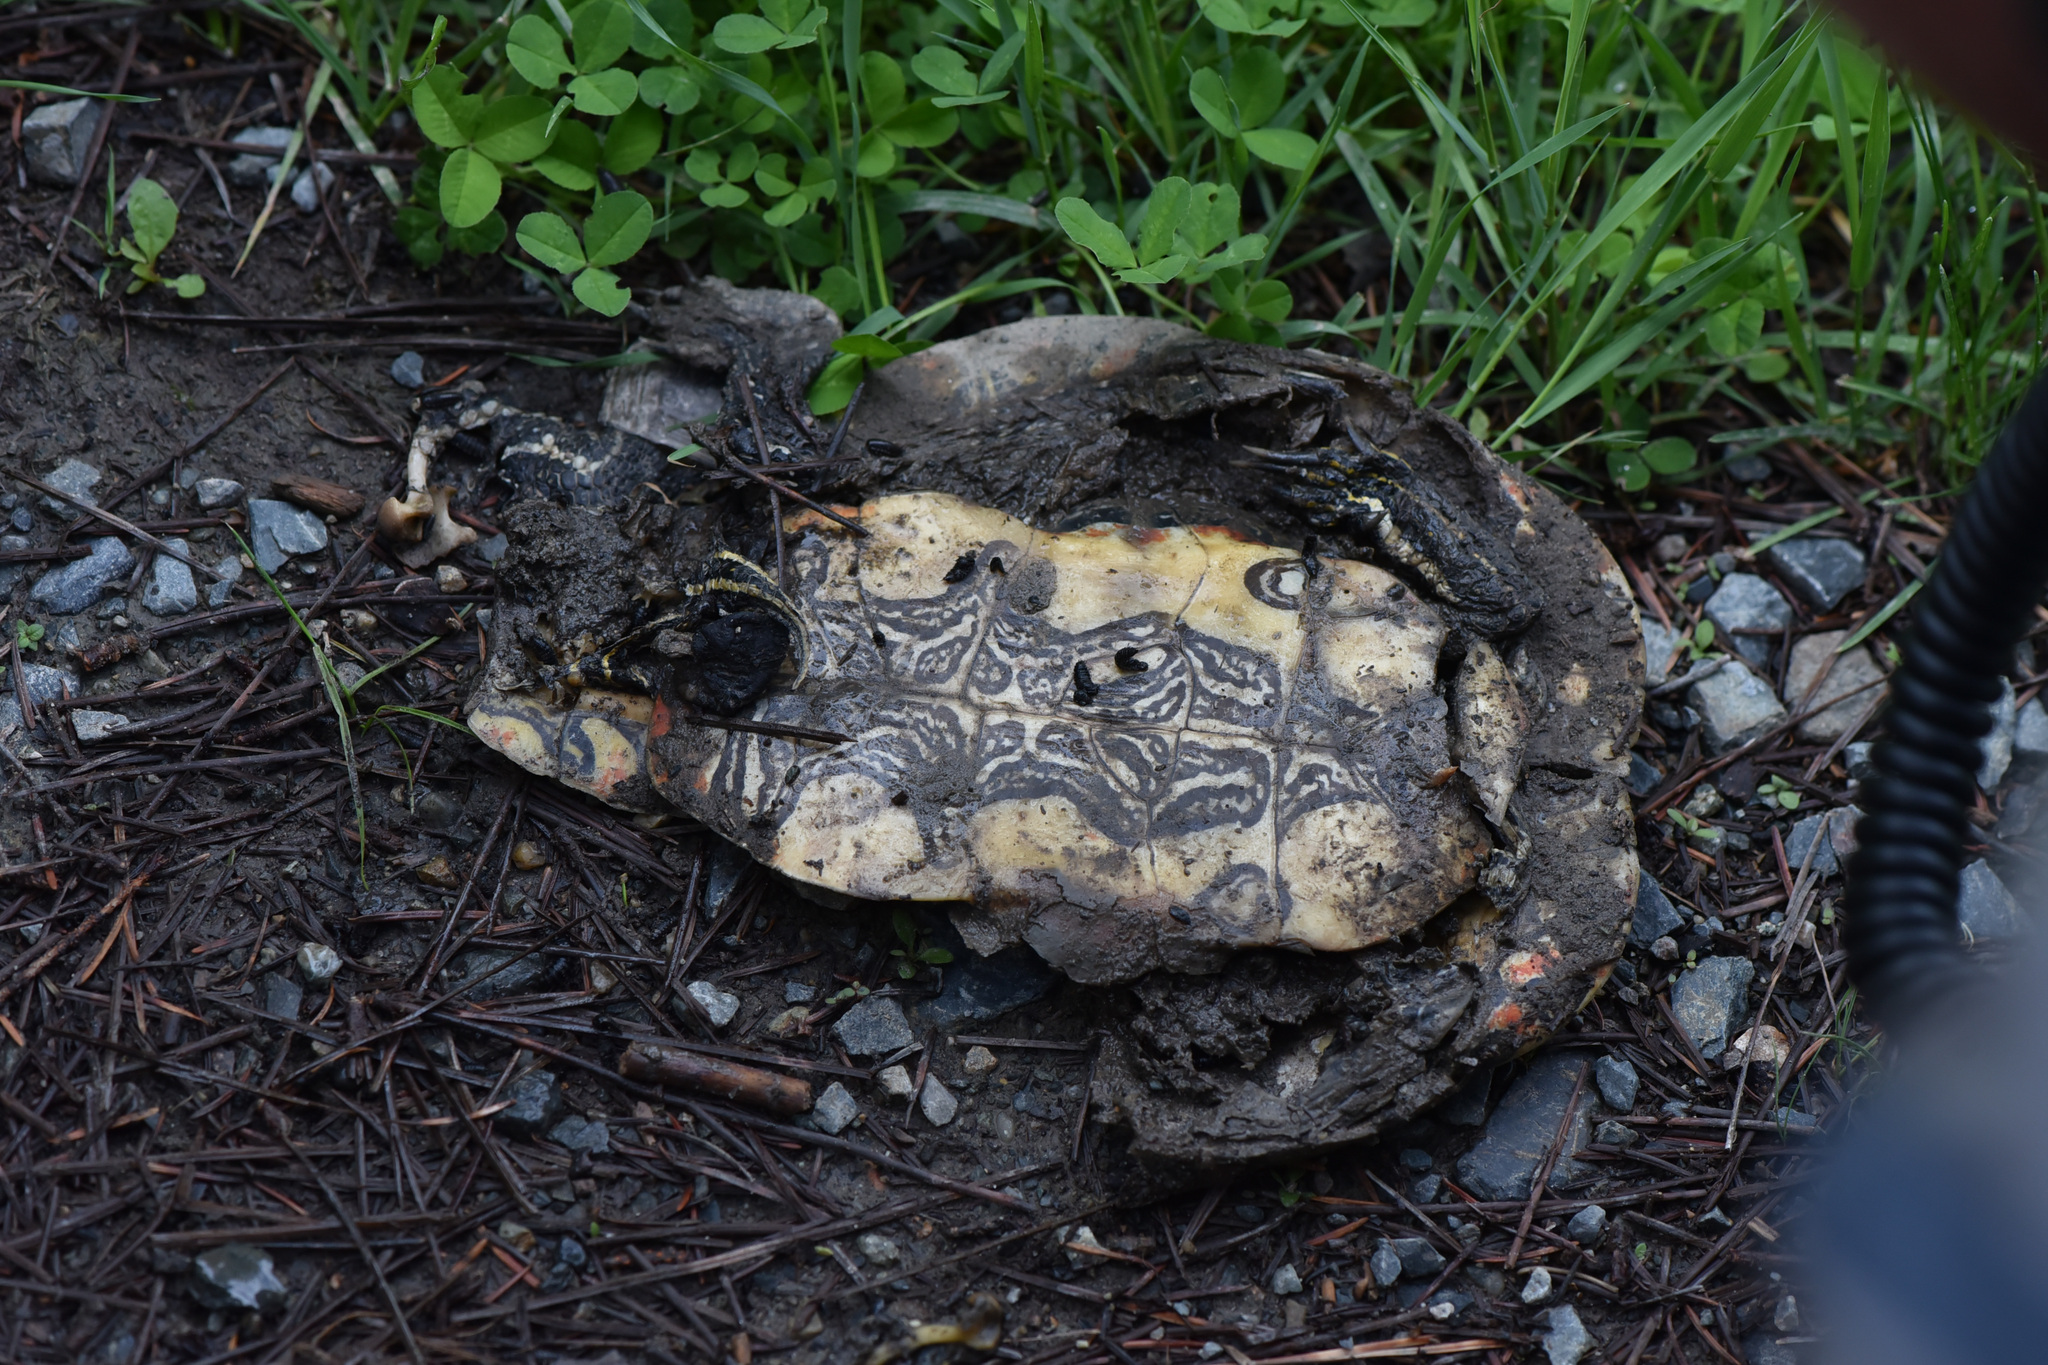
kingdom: Animalia
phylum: Chordata
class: Testudines
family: Emydidae
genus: Chrysemys
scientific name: Chrysemys picta
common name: Painted turtle
